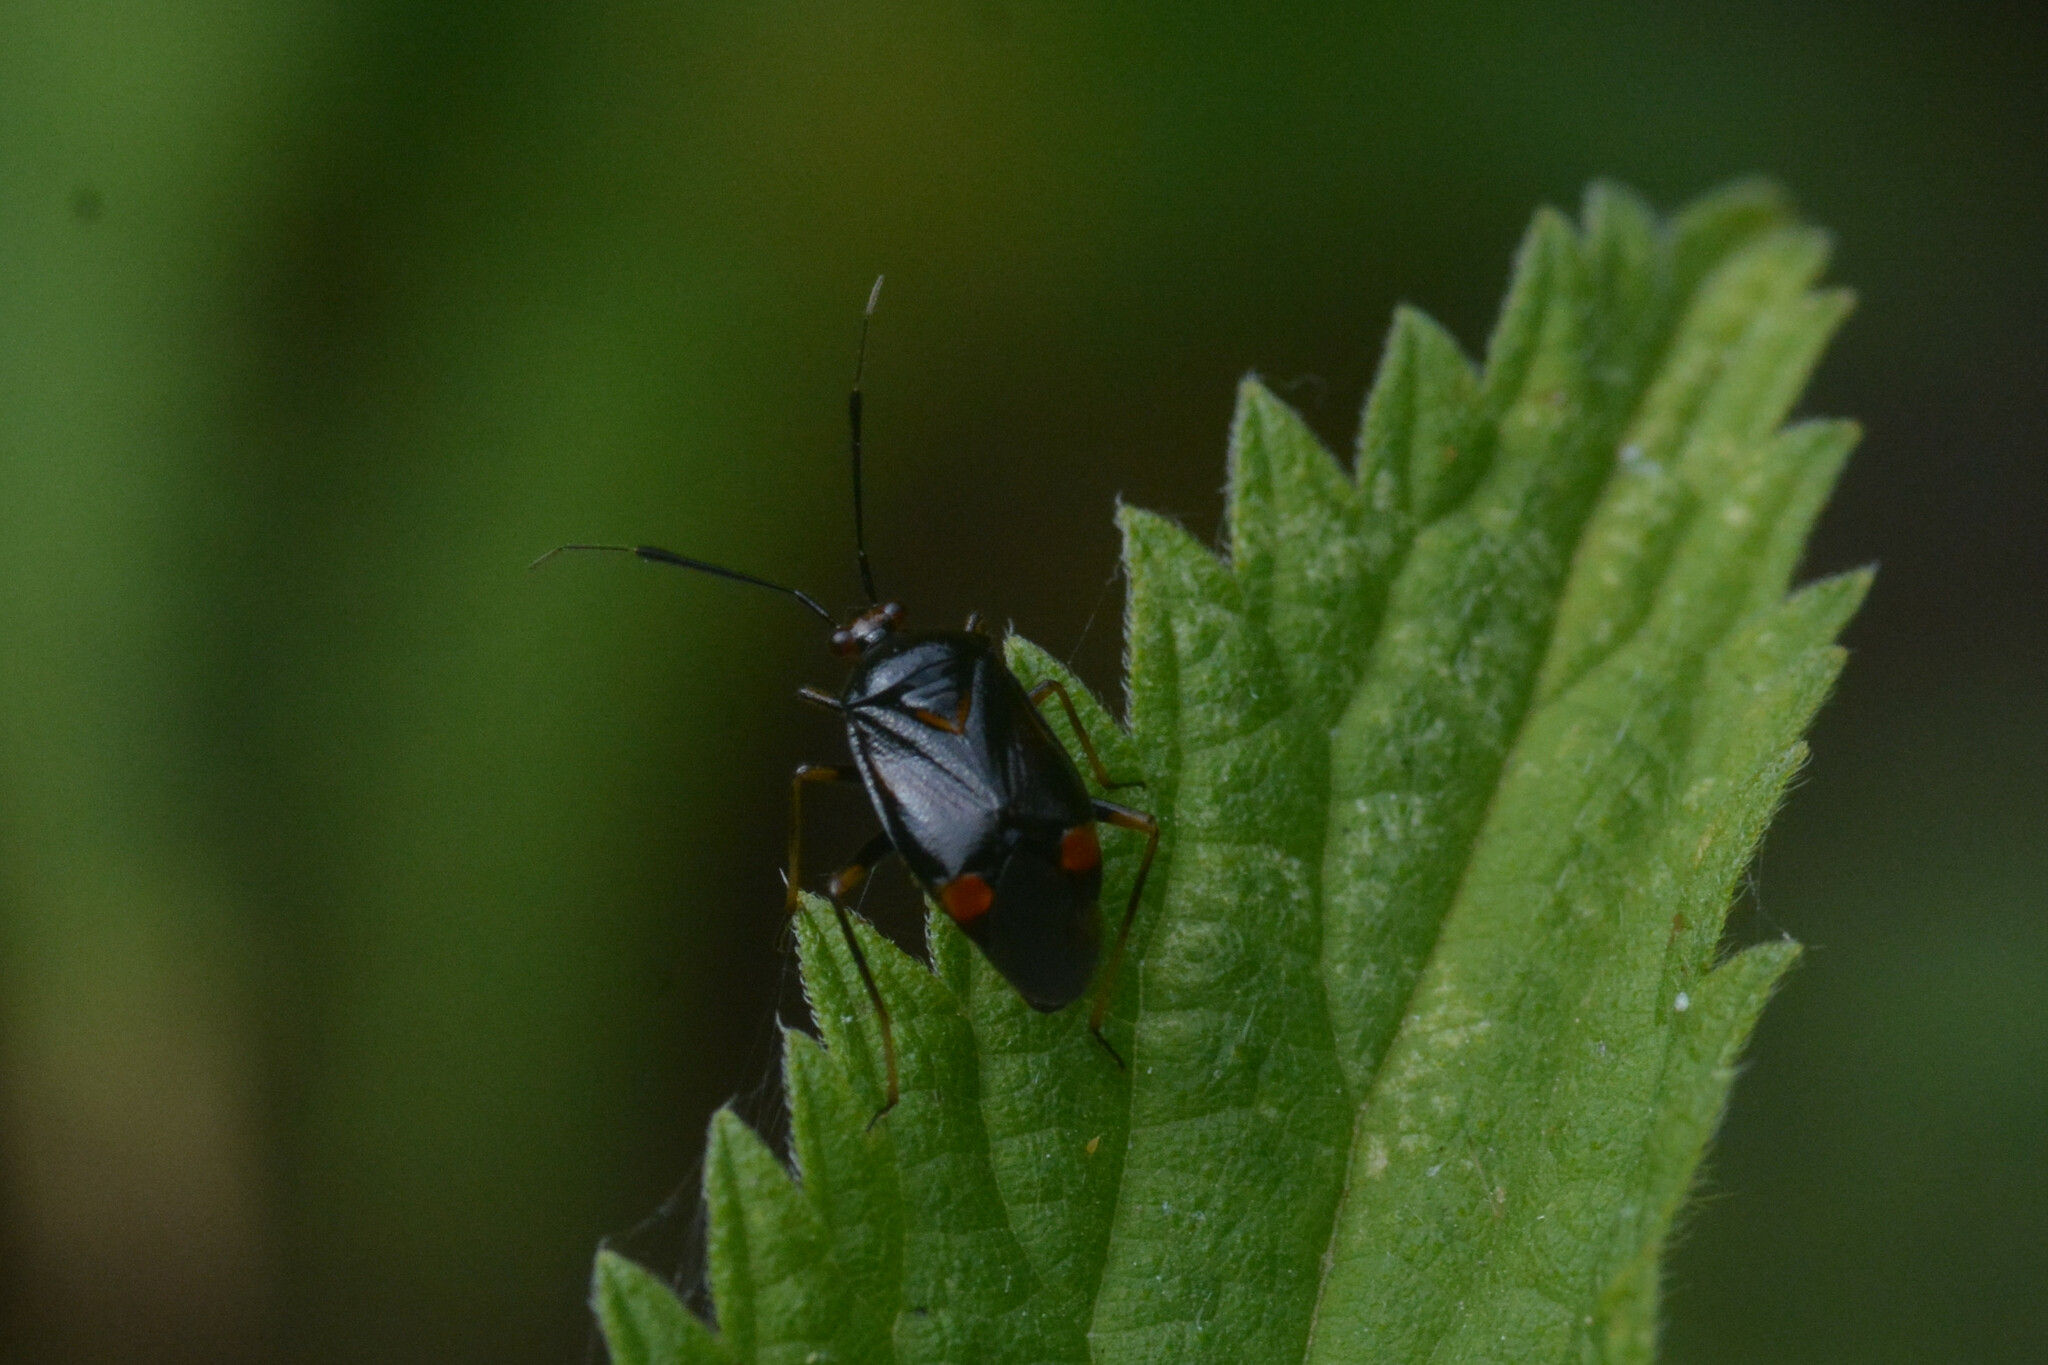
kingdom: Animalia
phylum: Arthropoda
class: Insecta
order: Hemiptera
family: Miridae
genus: Deraeocoris
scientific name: Deraeocoris ruber
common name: Plant bug
